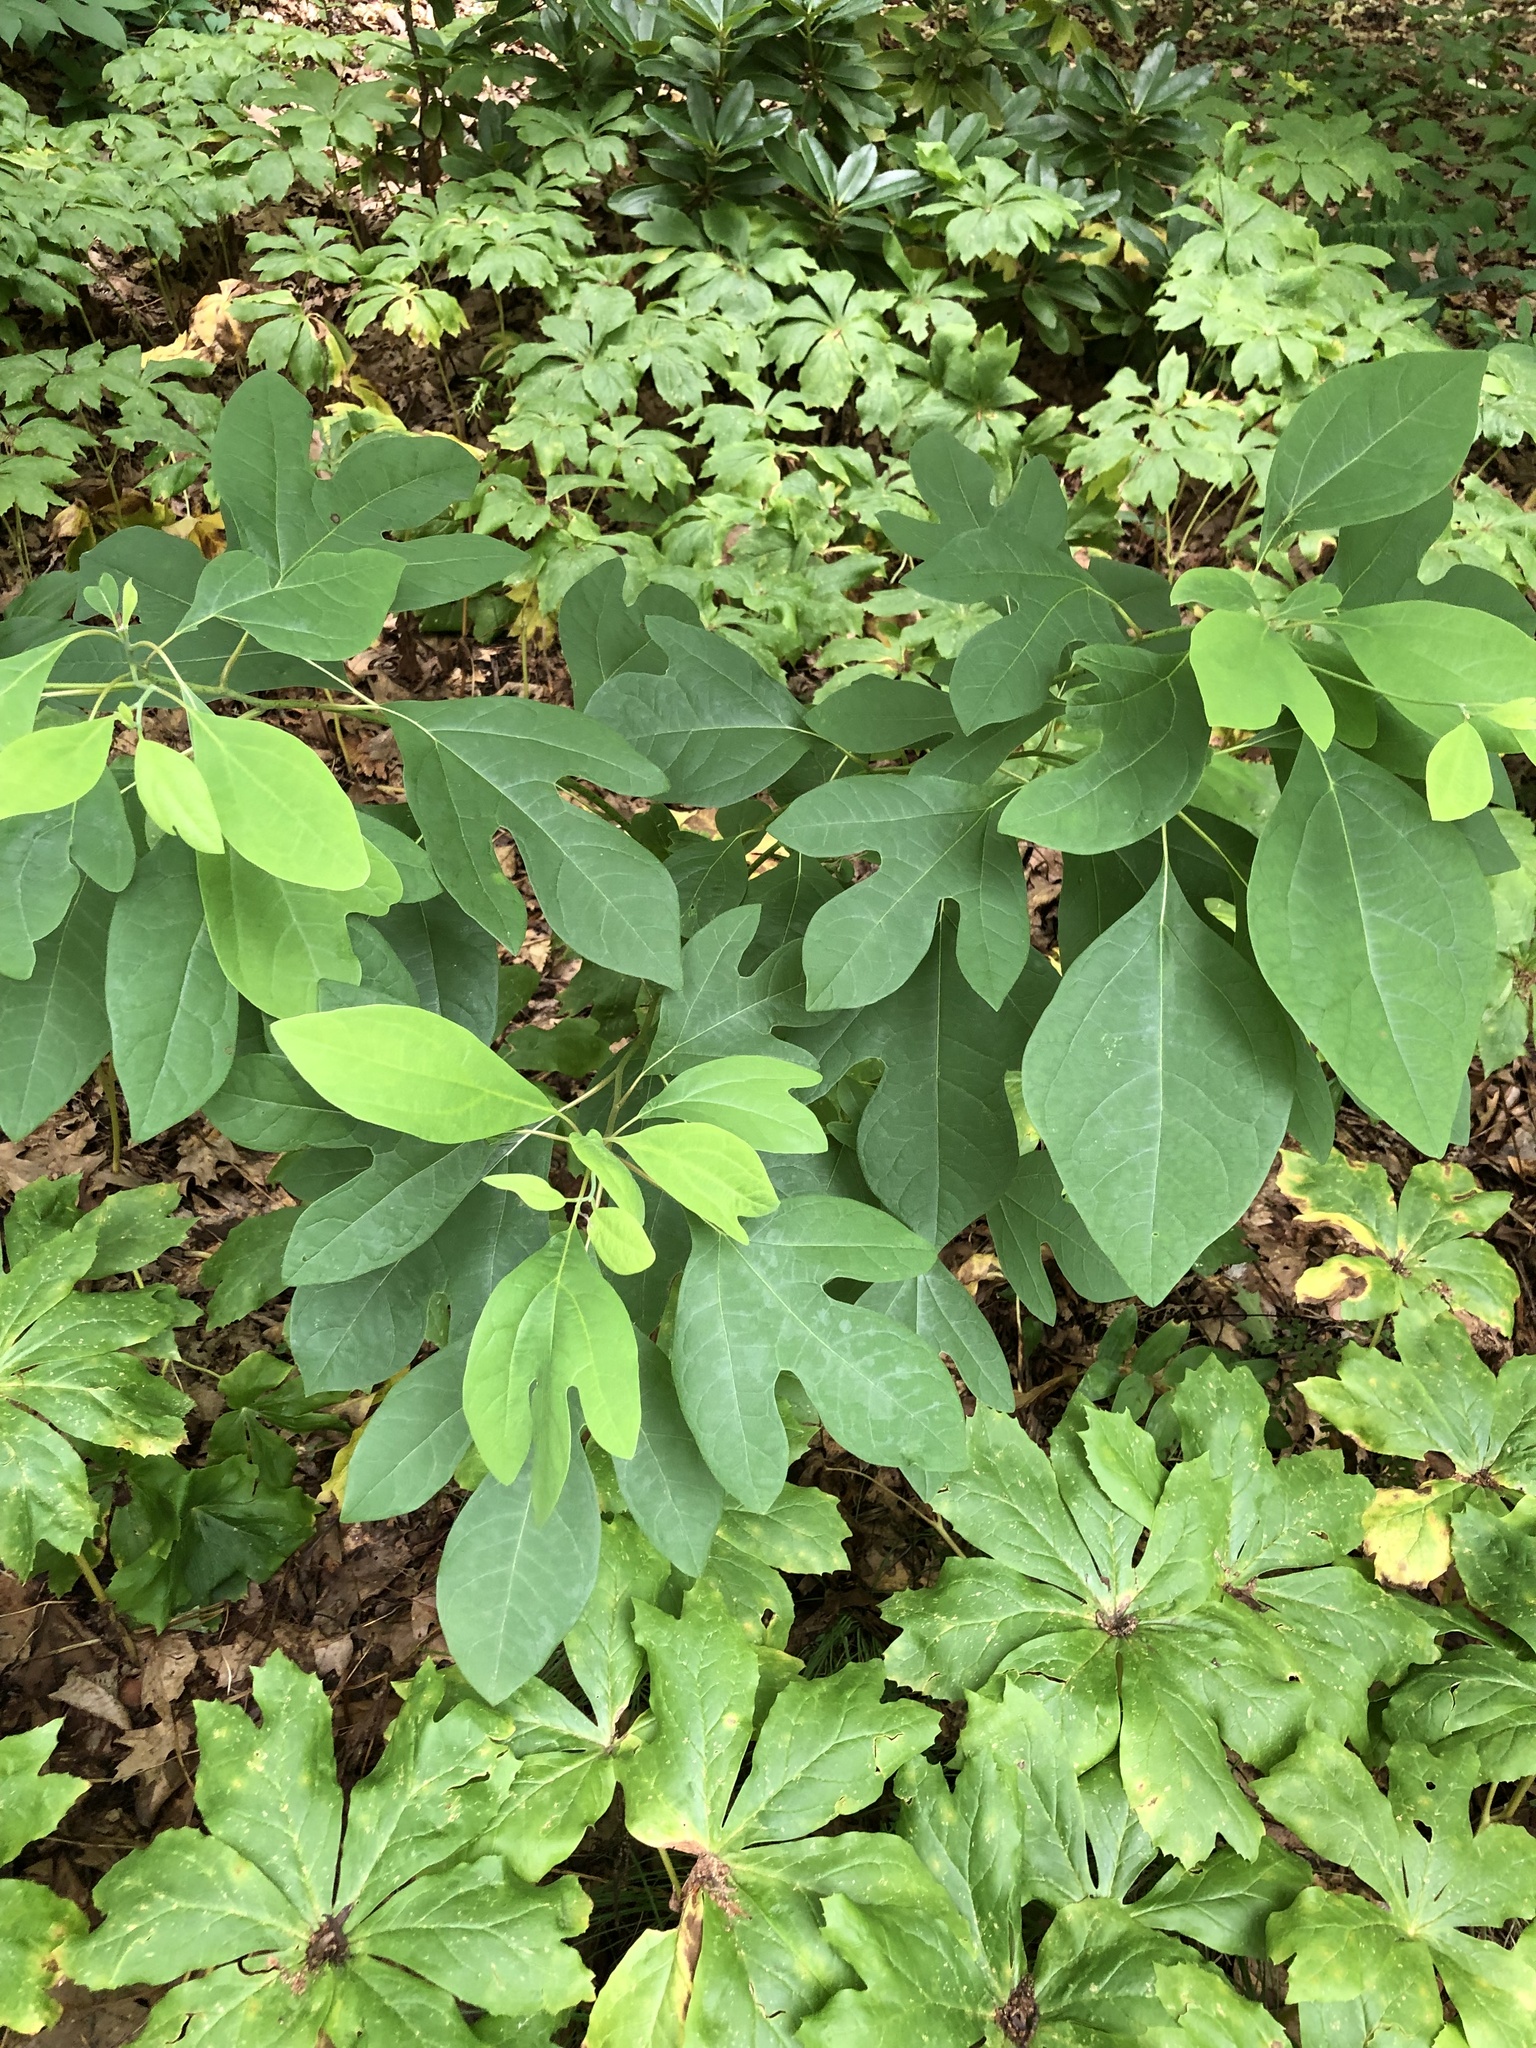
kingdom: Plantae
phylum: Tracheophyta
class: Magnoliopsida
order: Laurales
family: Lauraceae
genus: Sassafras
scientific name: Sassafras albidum
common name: Sassafras
